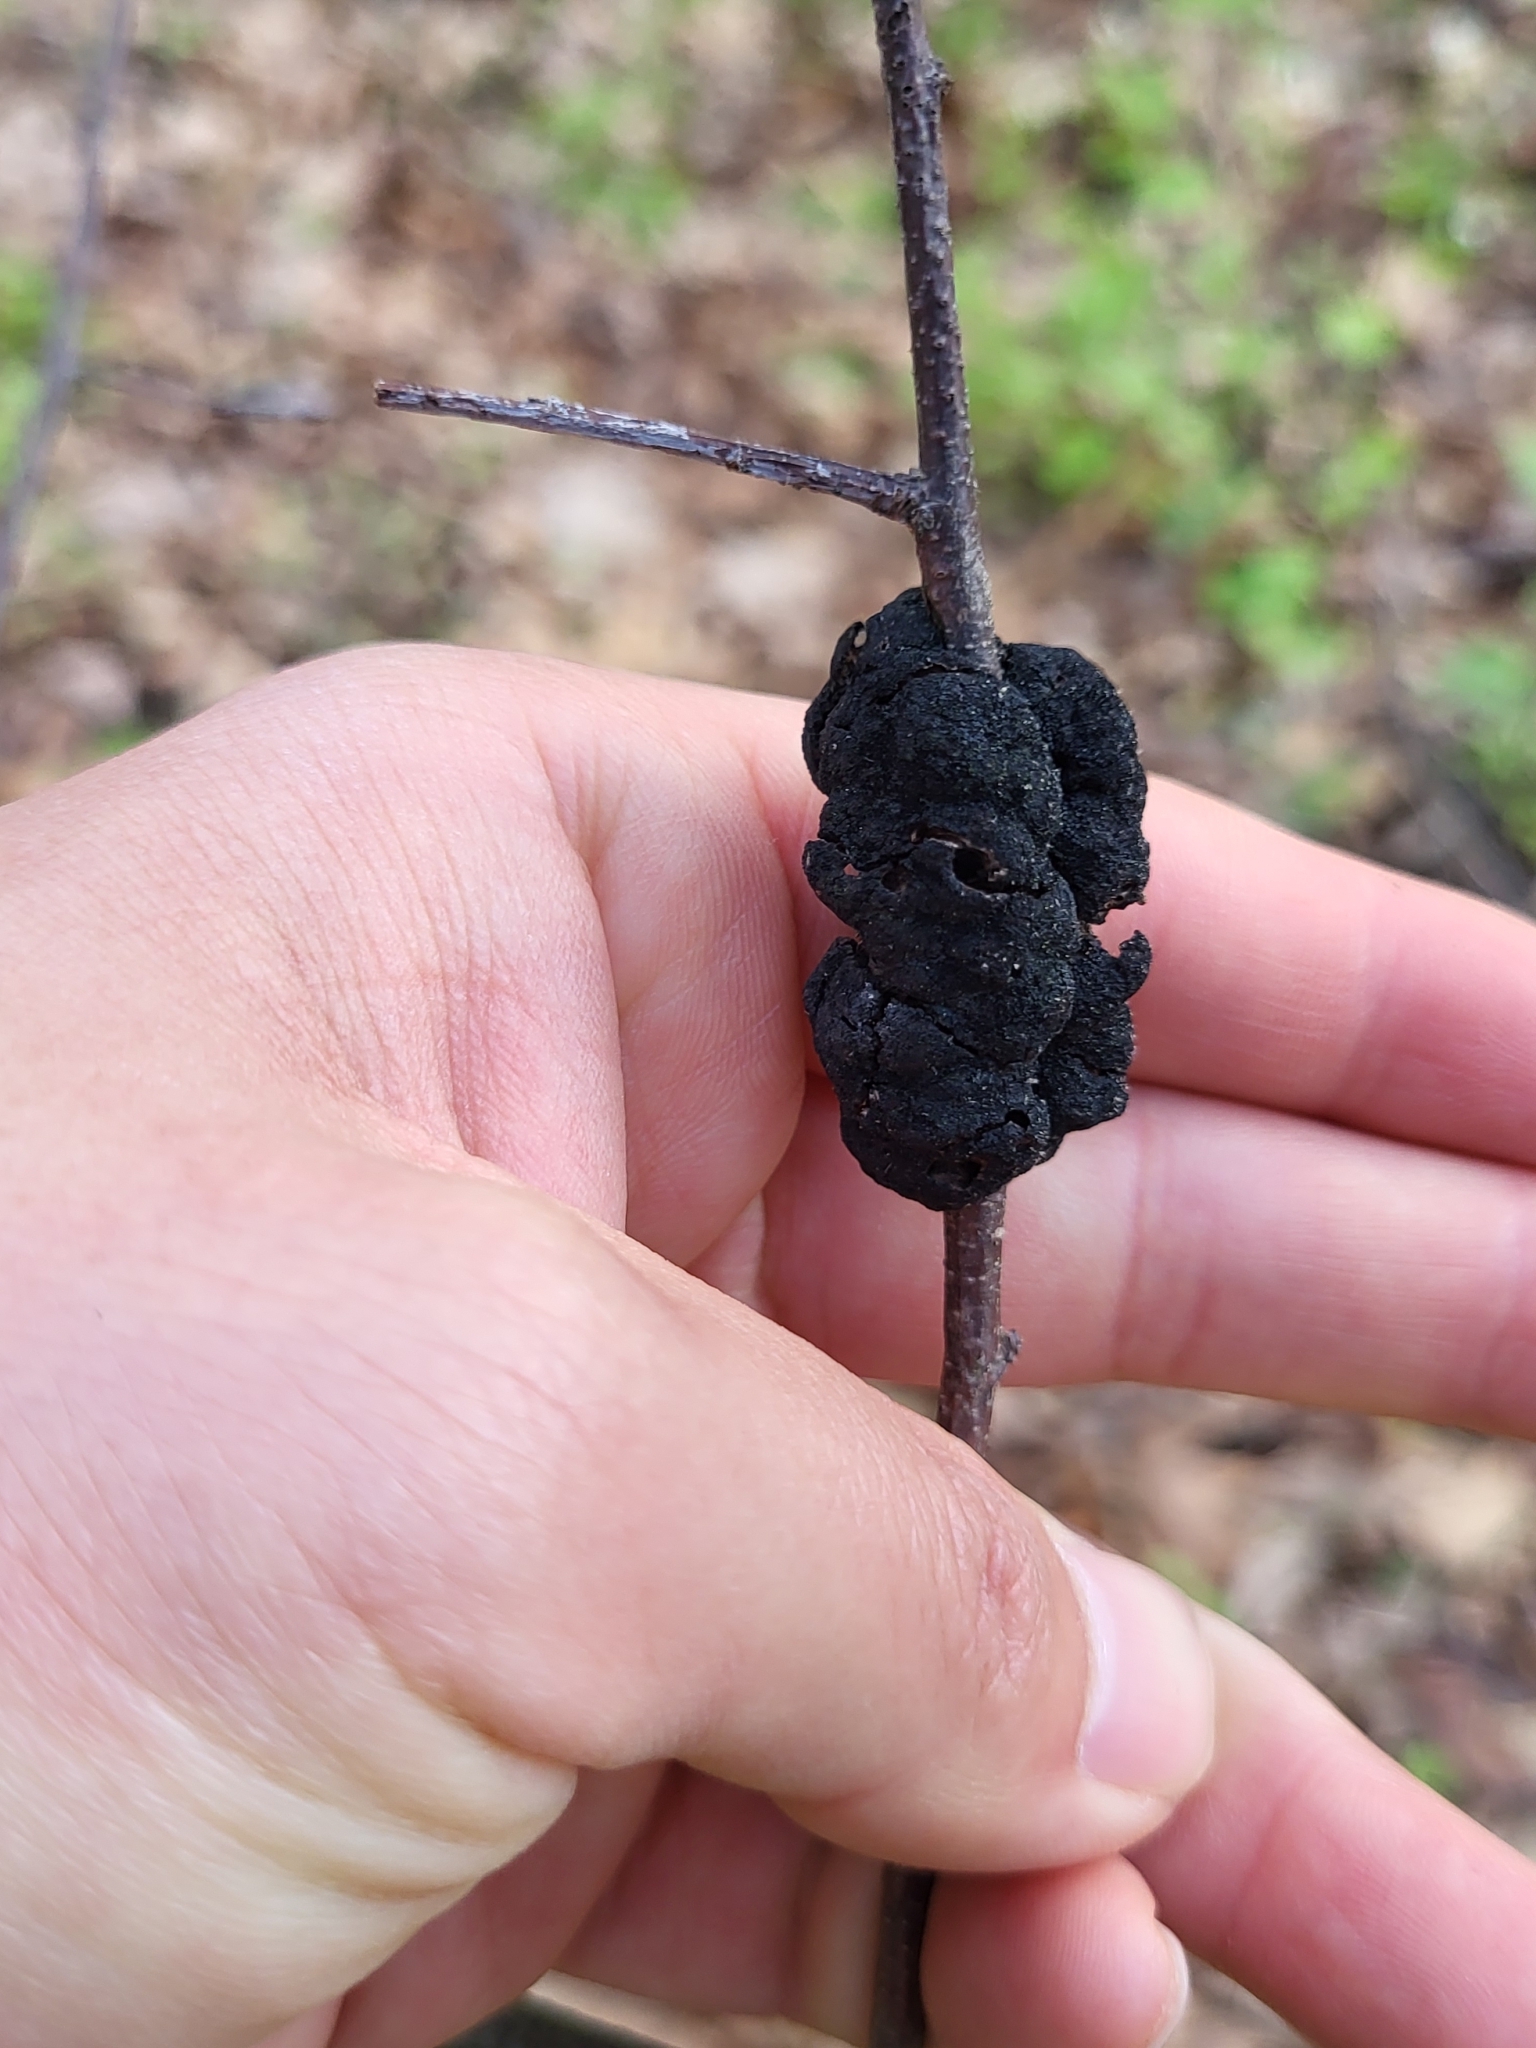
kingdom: Fungi
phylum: Ascomycota
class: Dothideomycetes
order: Venturiales
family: Venturiaceae
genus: Apiosporina
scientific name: Apiosporina morbosa
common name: Black knot
